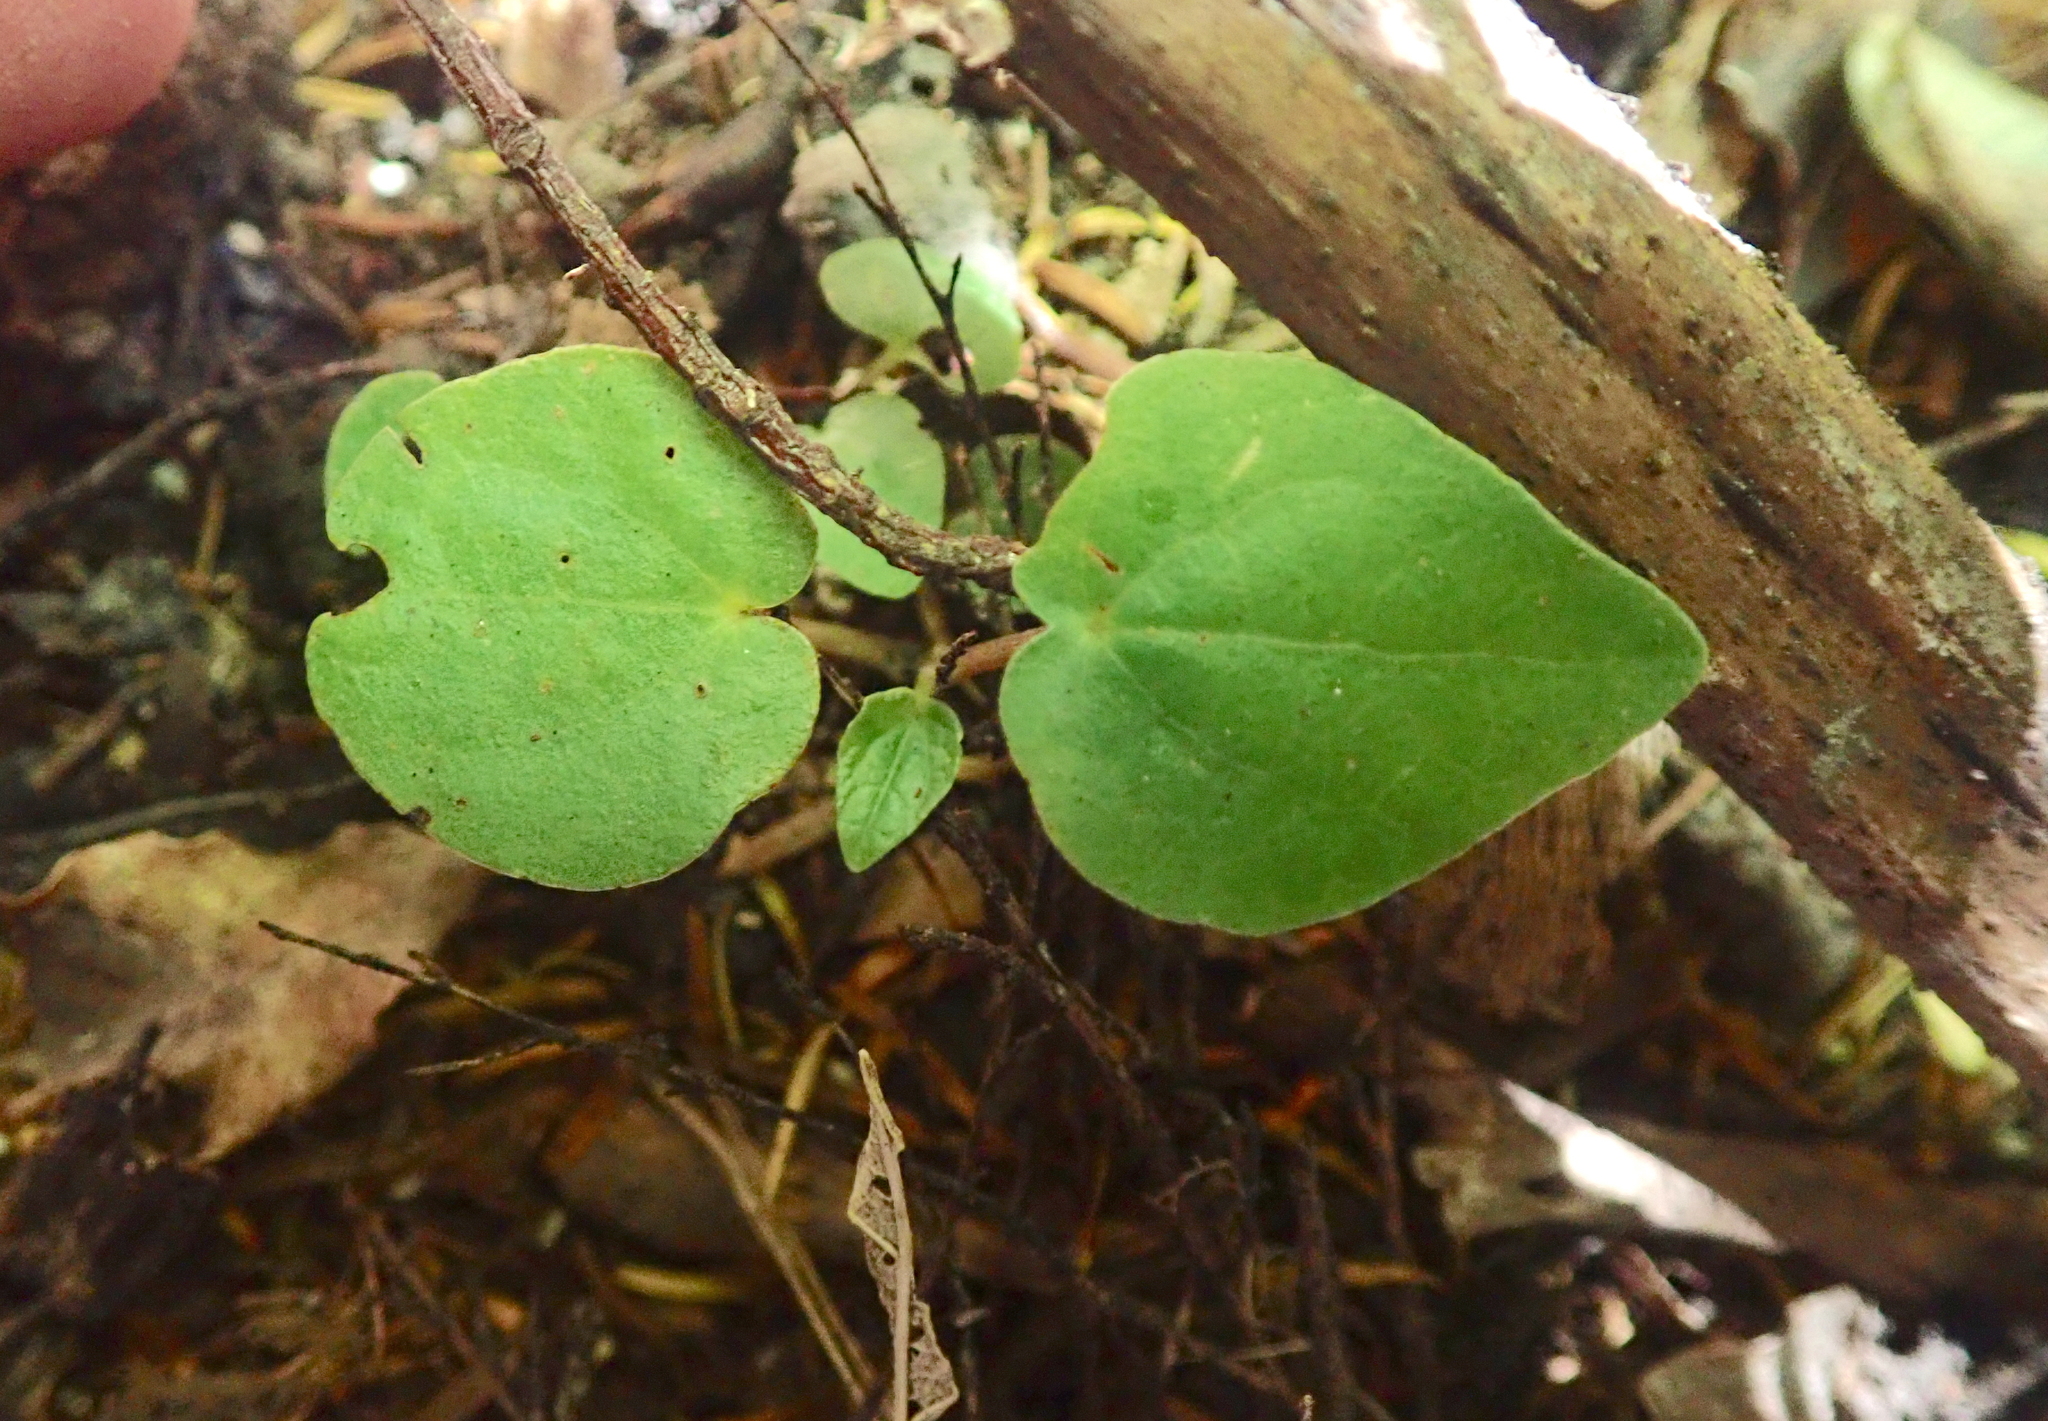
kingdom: Plantae
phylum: Tracheophyta
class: Magnoliopsida
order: Piperales
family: Piperaceae
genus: Macropiper
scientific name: Macropiper excelsum
